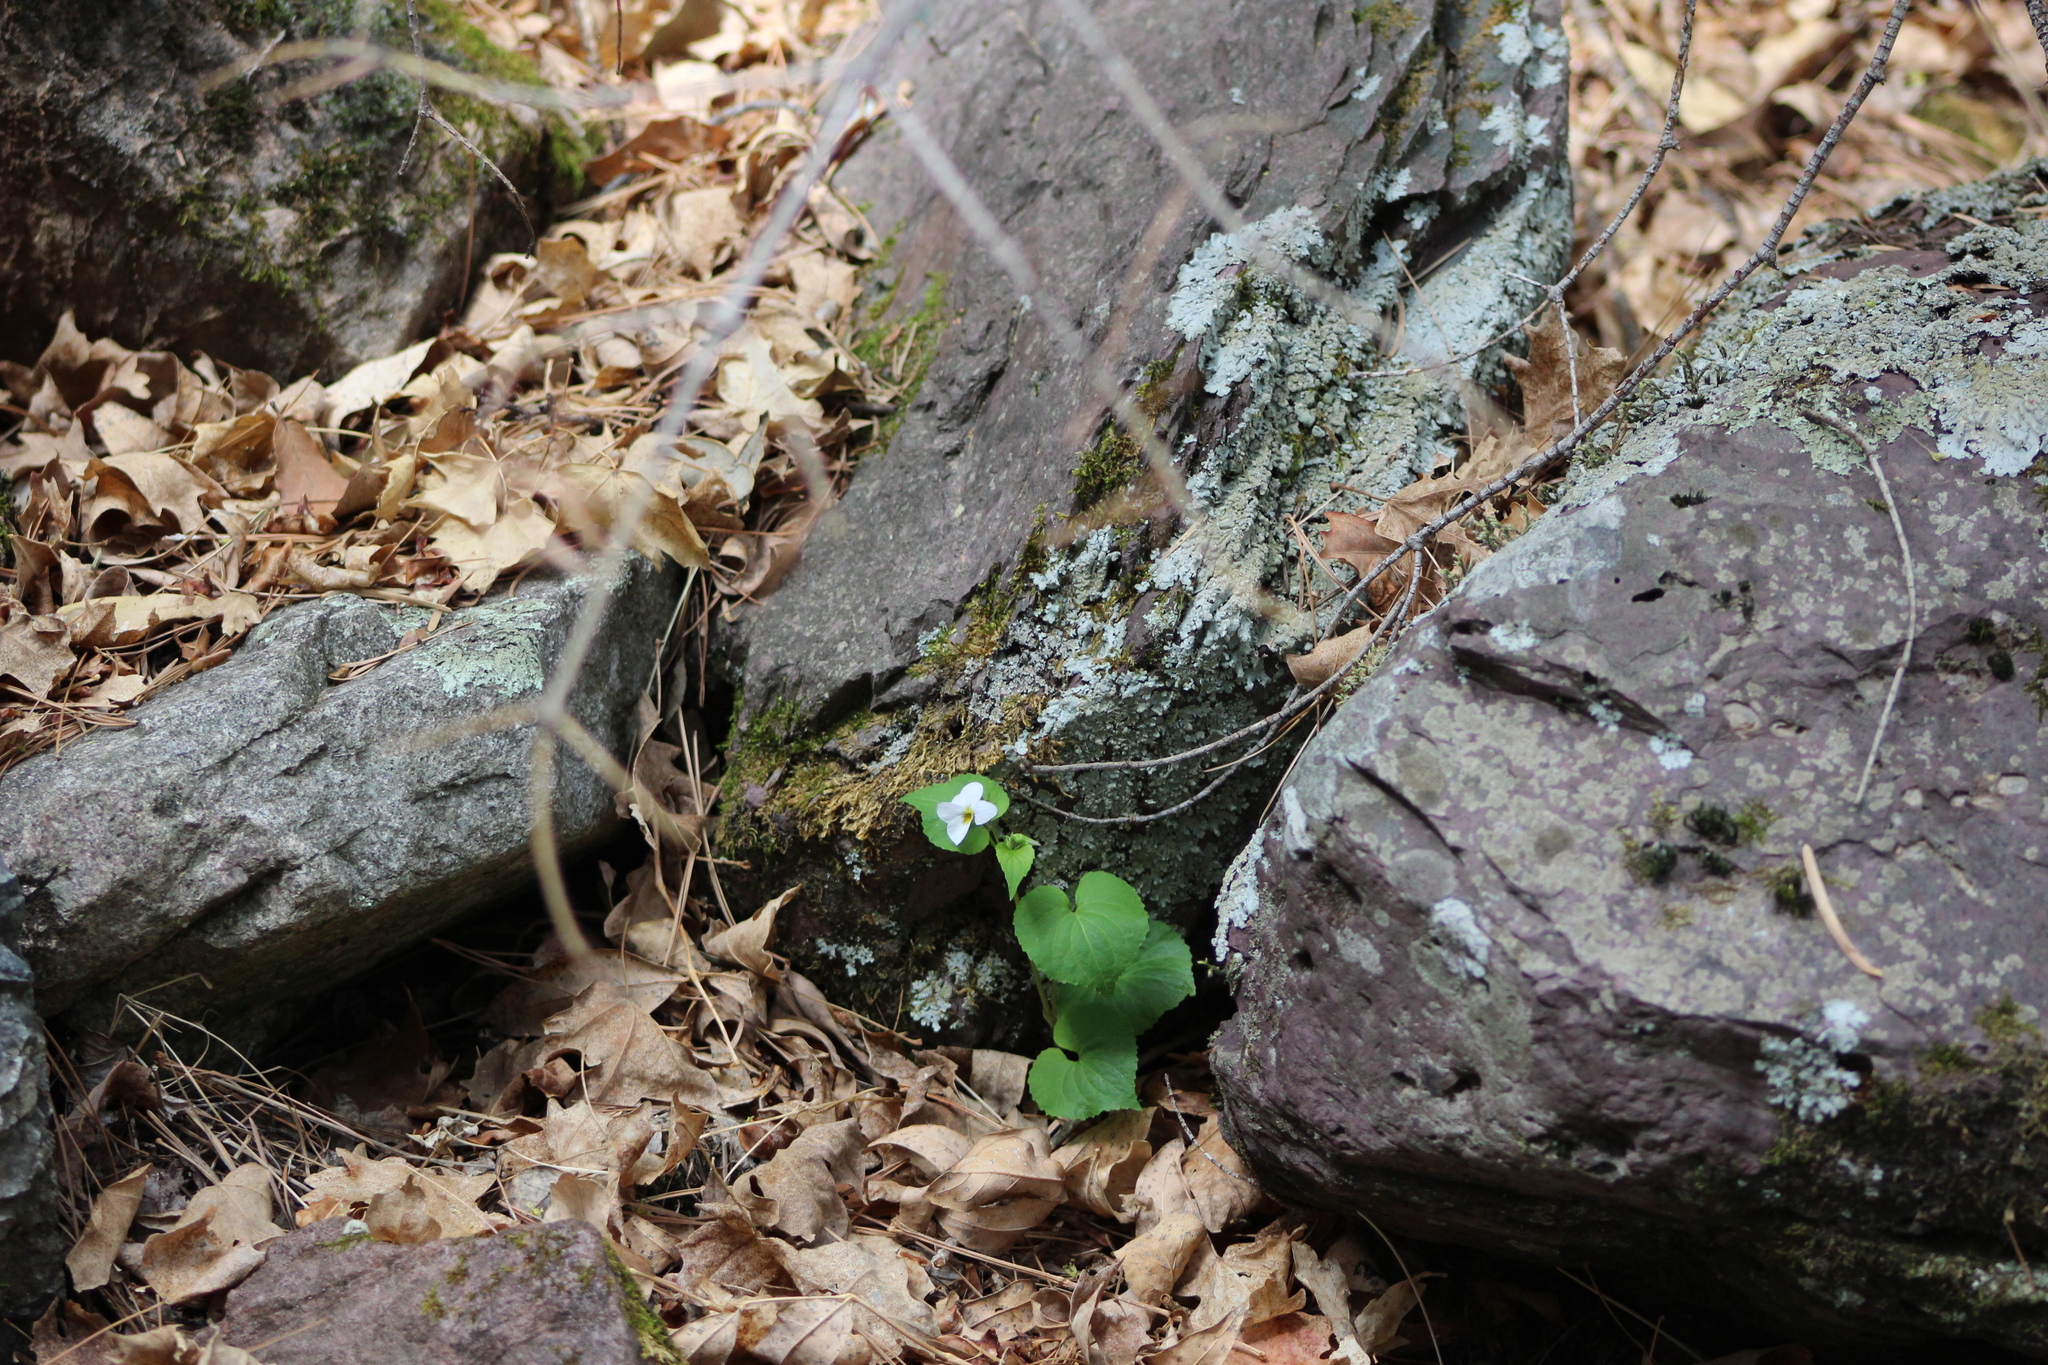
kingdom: Plantae
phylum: Tracheophyta
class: Magnoliopsida
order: Malpighiales
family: Violaceae
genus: Viola
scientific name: Viola canadensis
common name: Canada violet
